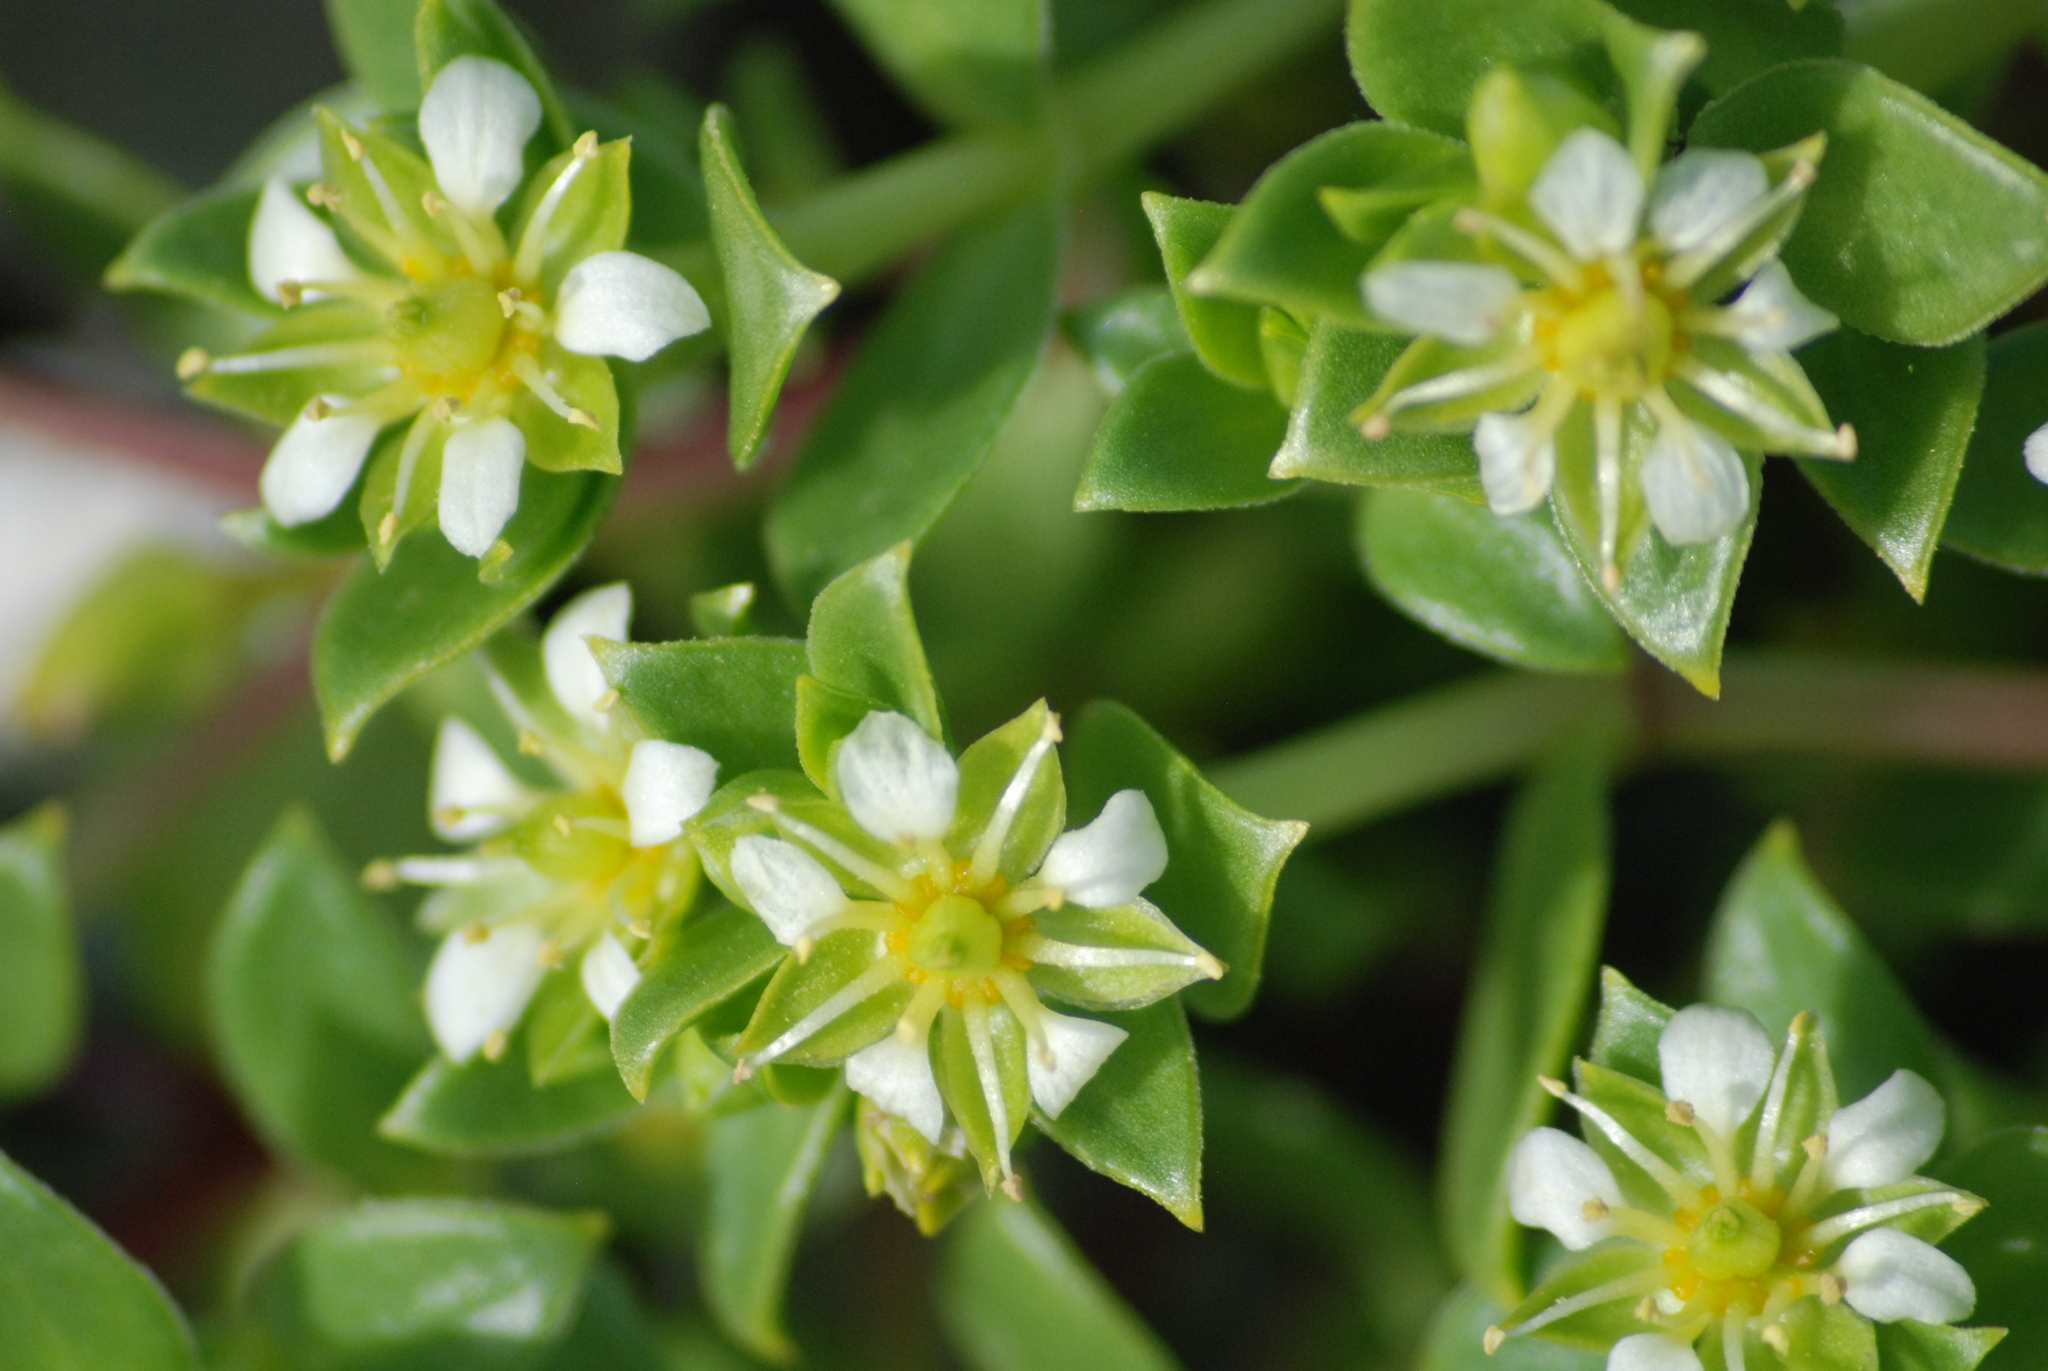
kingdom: Plantae
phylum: Tracheophyta
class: Magnoliopsida
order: Caryophyllales
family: Caryophyllaceae
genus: Honckenya
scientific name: Honckenya peploides
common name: Sea sandwort
